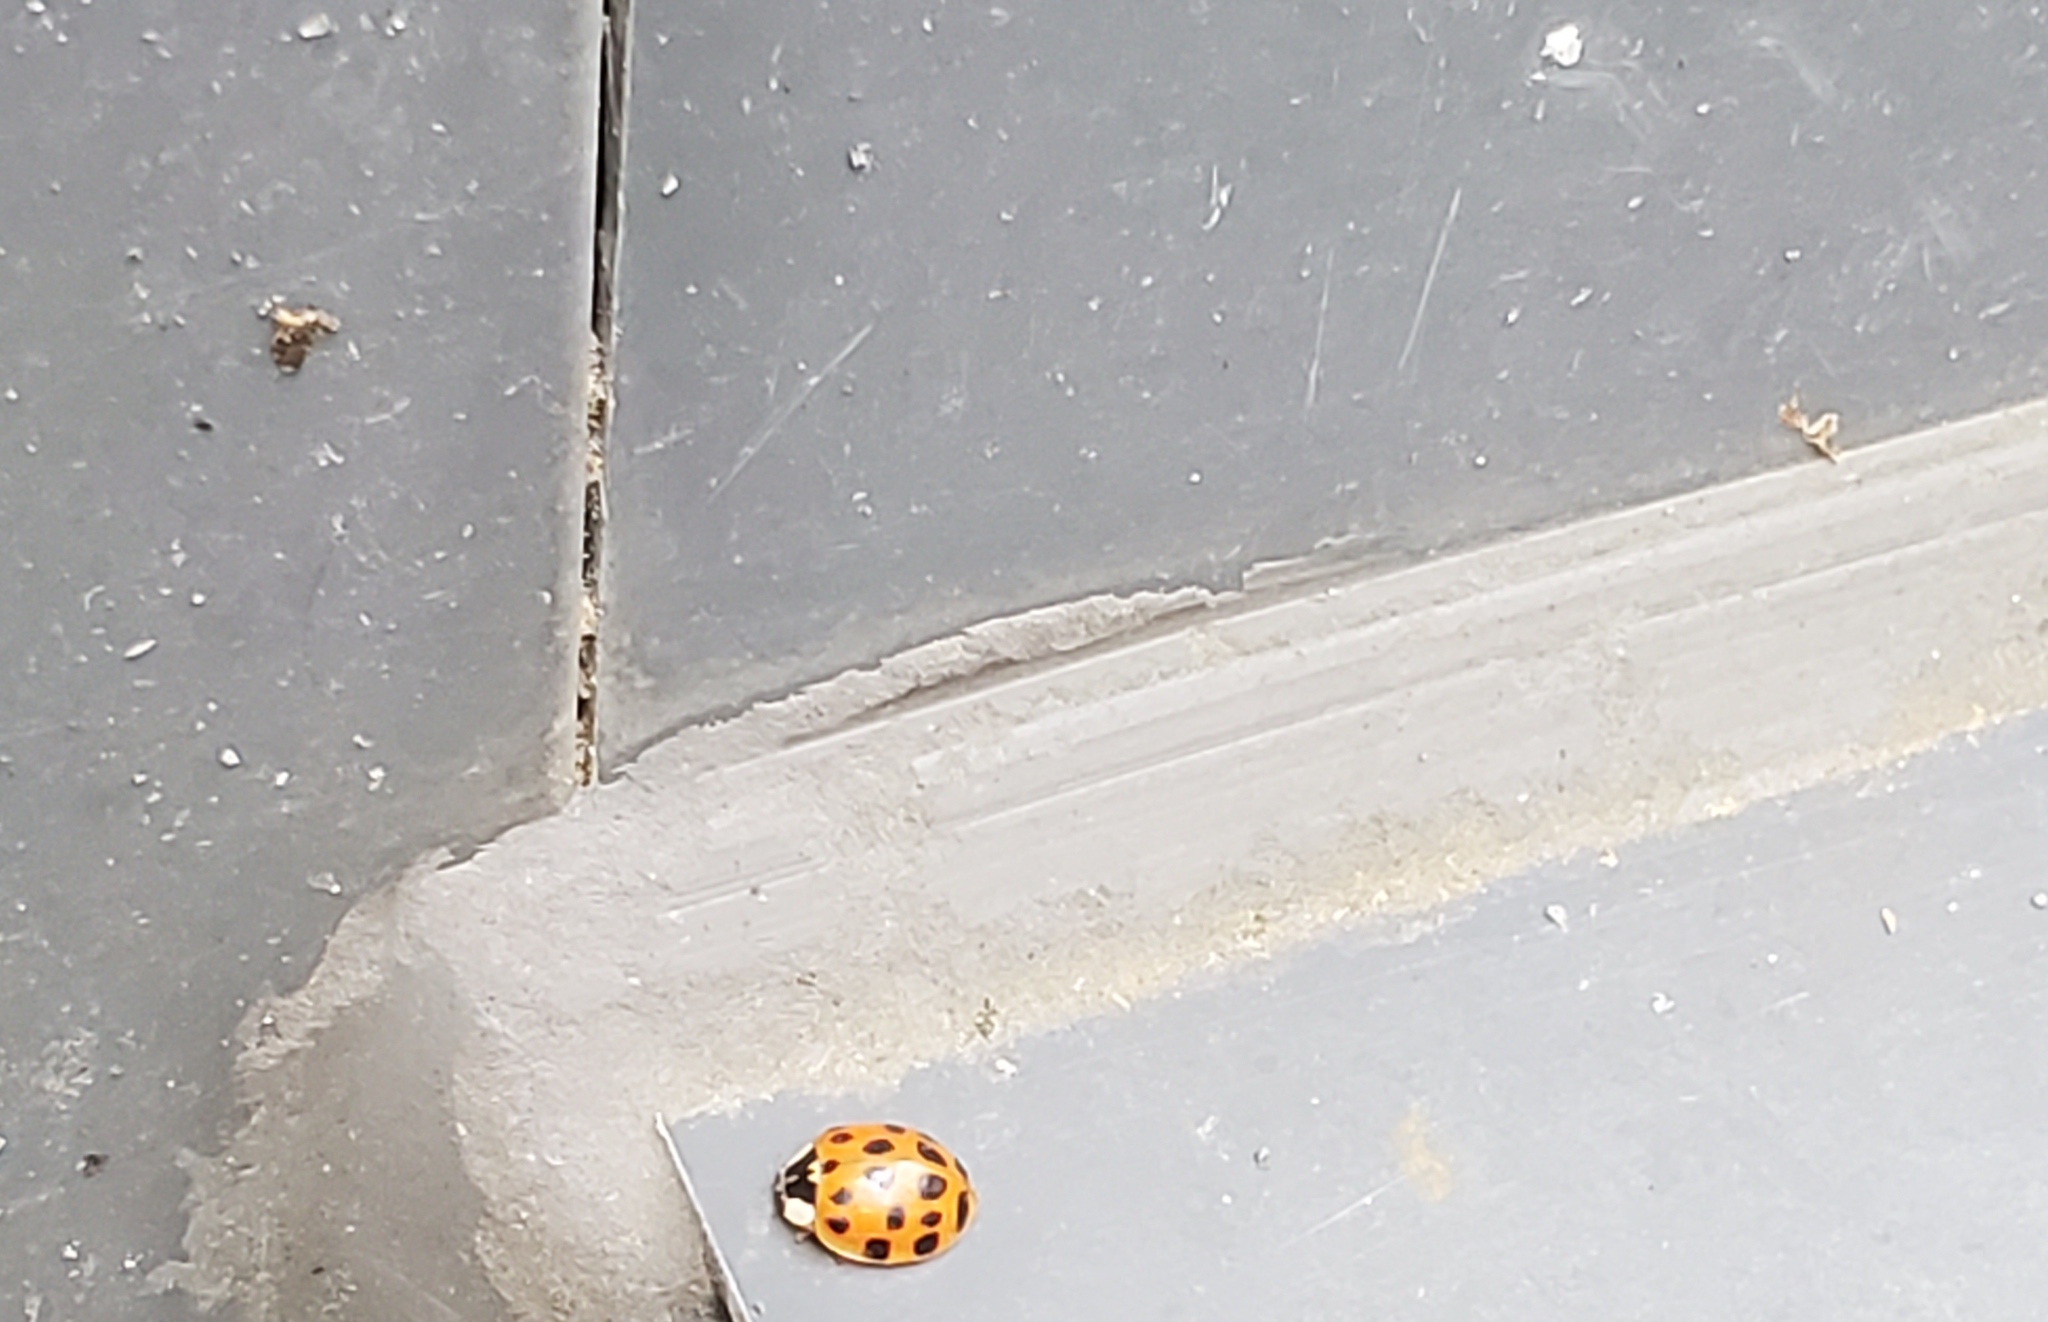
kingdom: Animalia
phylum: Arthropoda
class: Insecta
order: Coleoptera
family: Coccinellidae
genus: Harmonia
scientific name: Harmonia axyridis
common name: Harlequin ladybird
